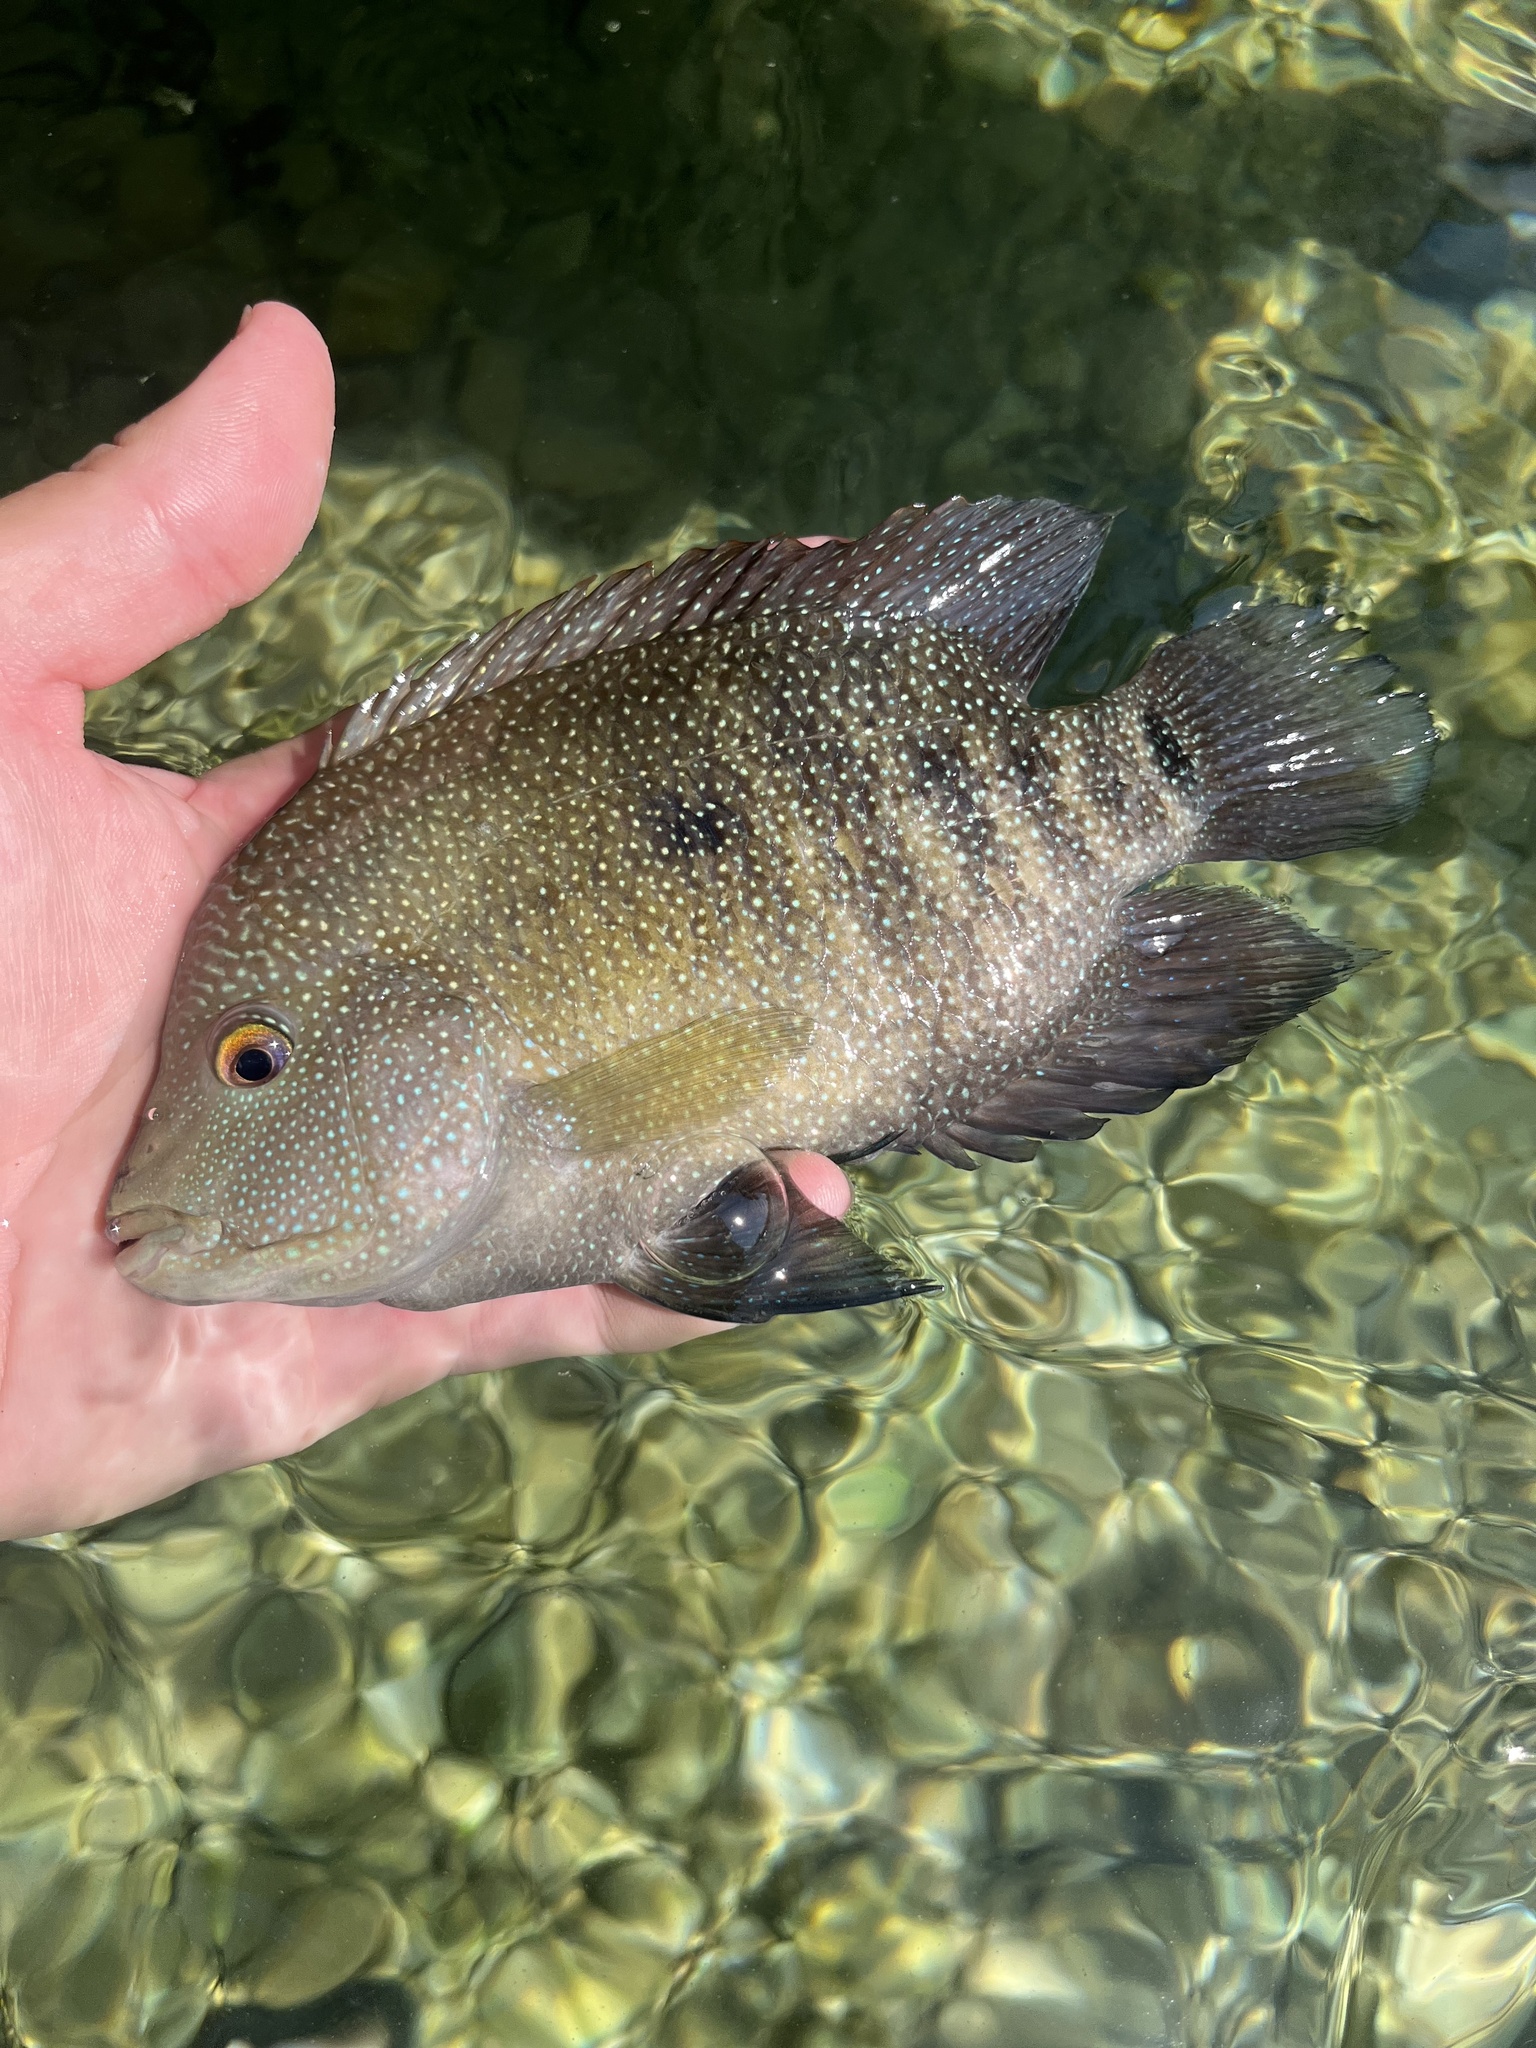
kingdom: Animalia
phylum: Chordata
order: Perciformes
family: Cichlidae
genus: Herichthys
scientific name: Herichthys cyanoguttatus
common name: Rio grande cichlid
